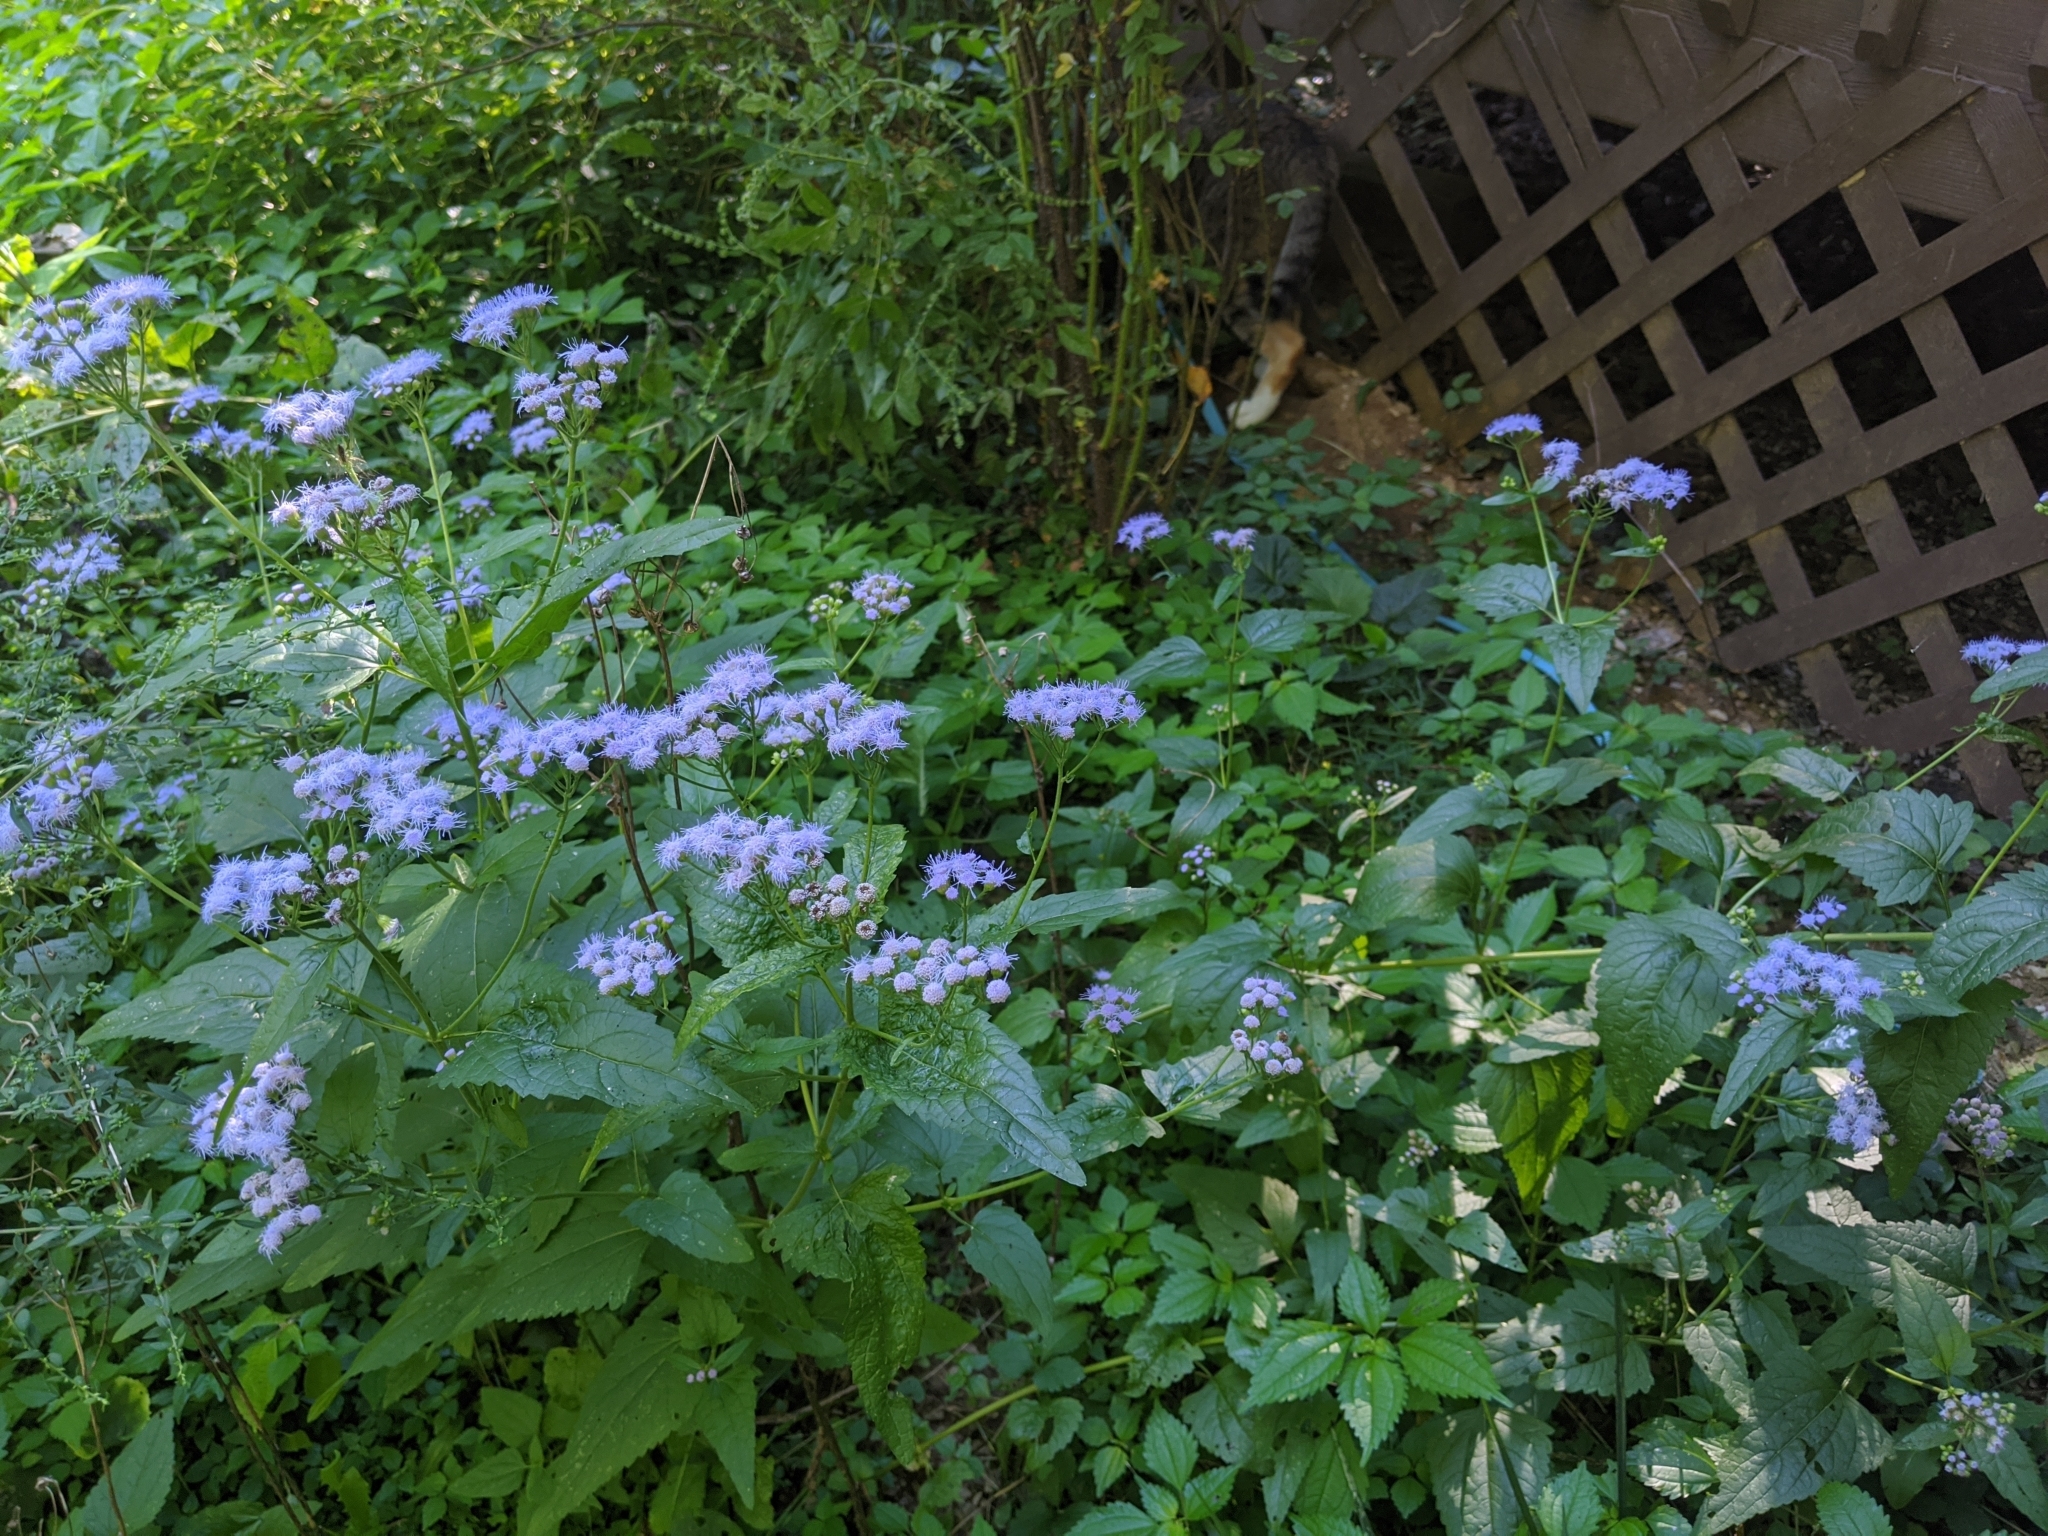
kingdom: Plantae
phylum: Tracheophyta
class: Magnoliopsida
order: Asterales
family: Asteraceae
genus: Conoclinium
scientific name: Conoclinium coelestinum
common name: Blue mistflower
